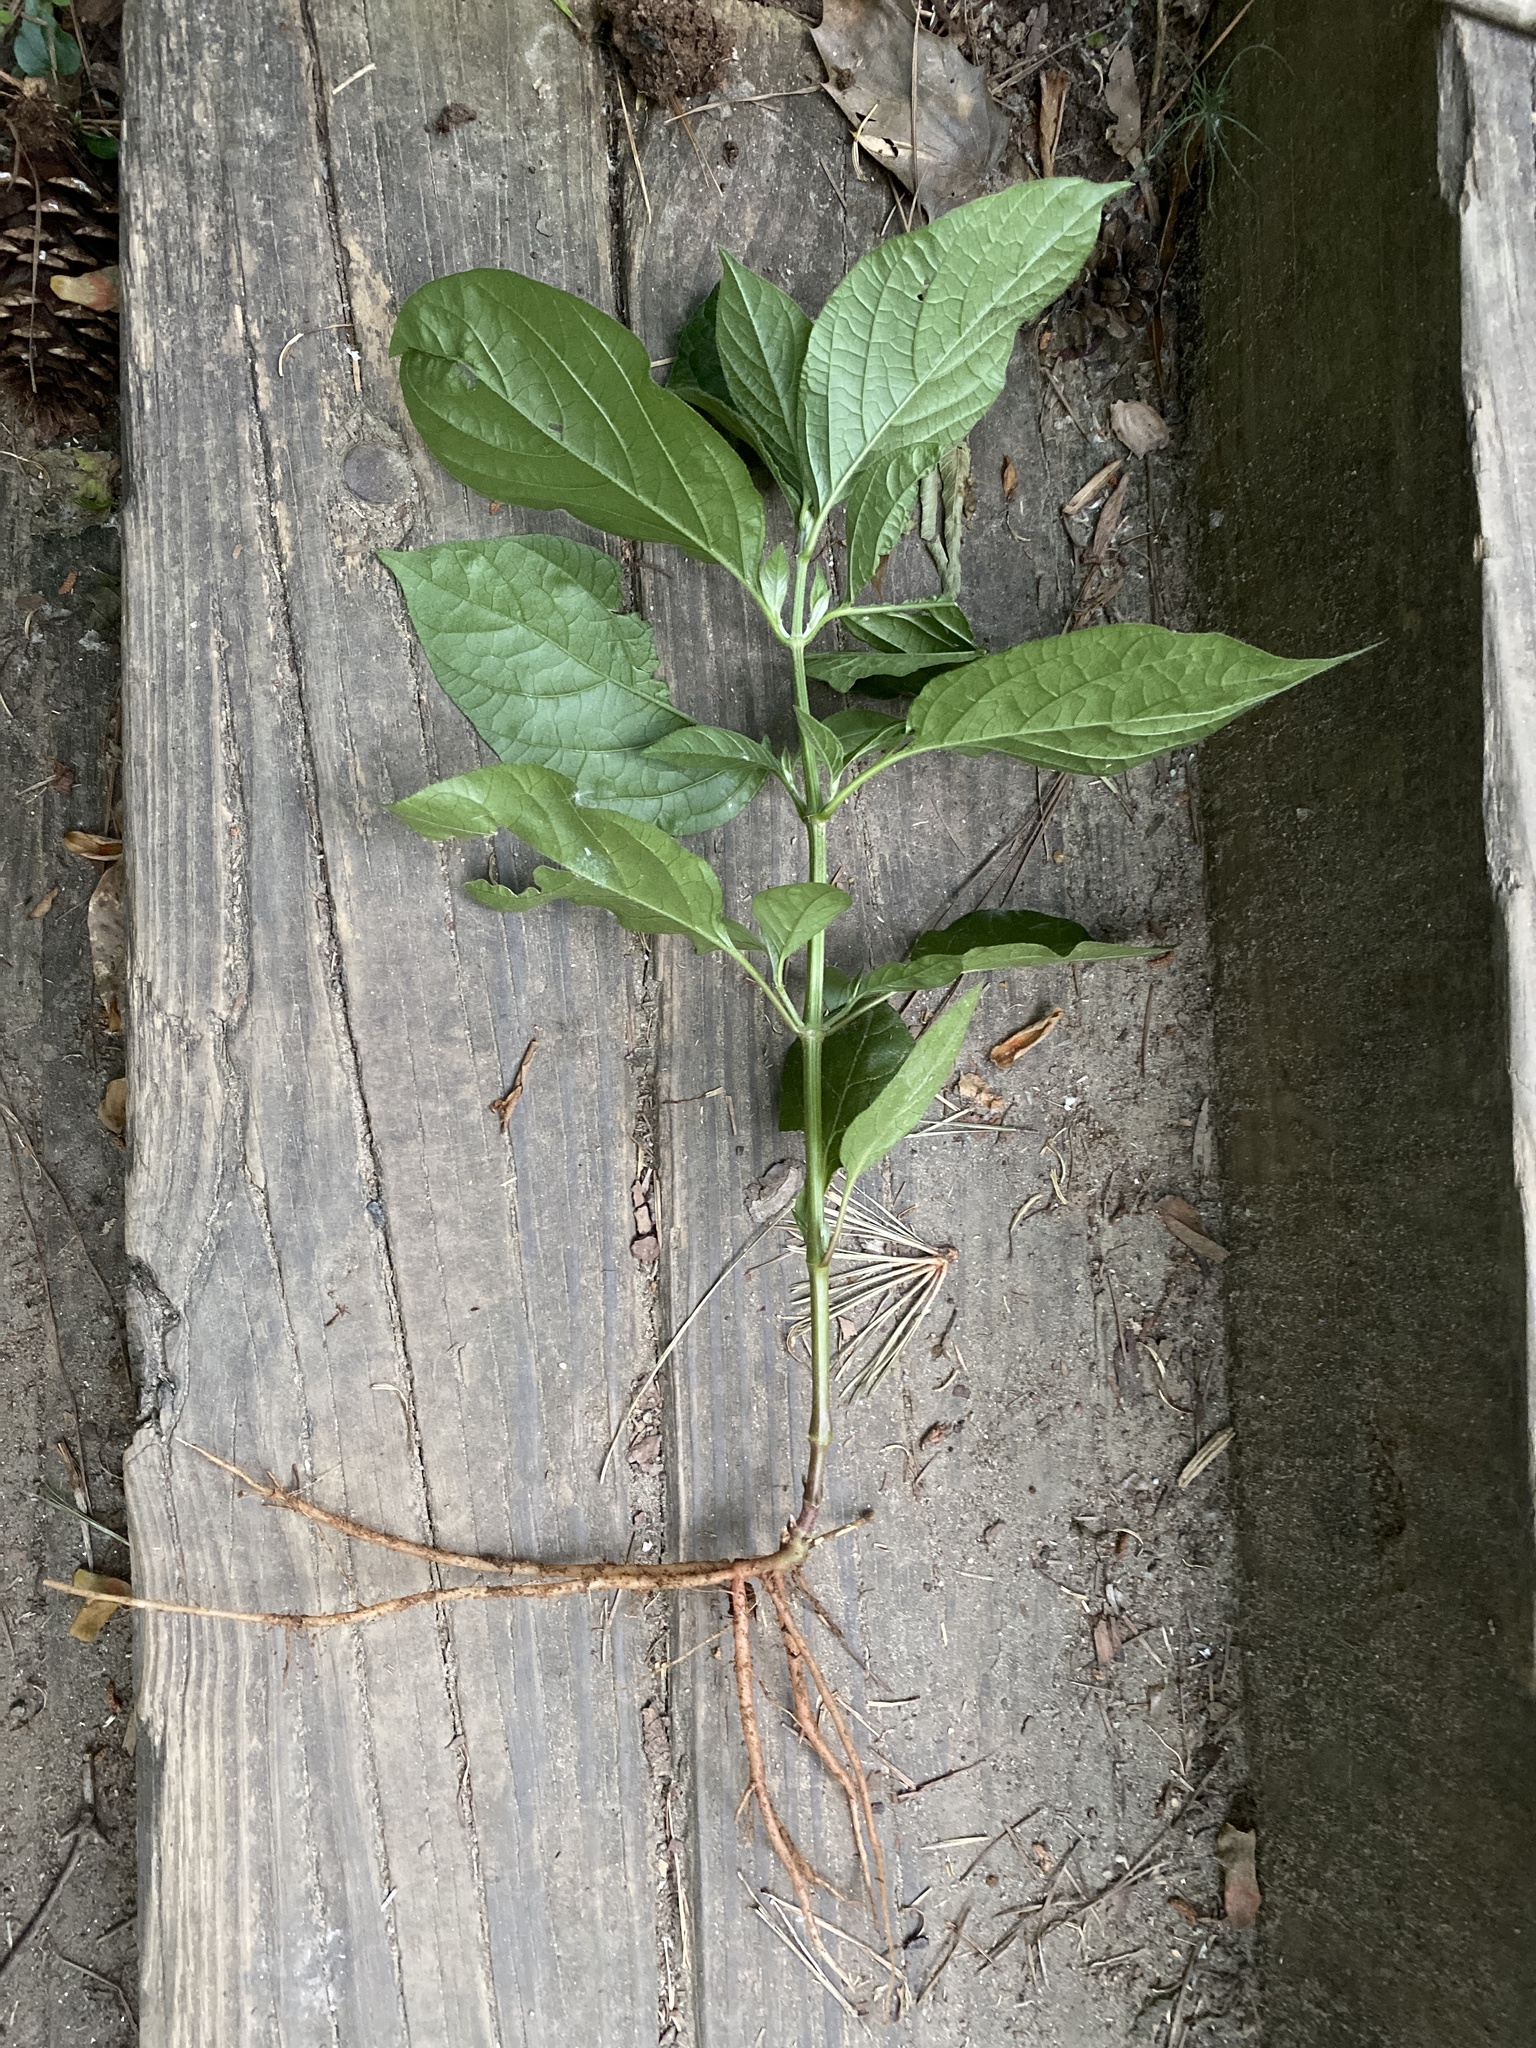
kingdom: Plantae
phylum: Tracheophyta
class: Magnoliopsida
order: Caryophyllales
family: Amaranthaceae
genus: Achyranthes
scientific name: Achyranthes bidentata
